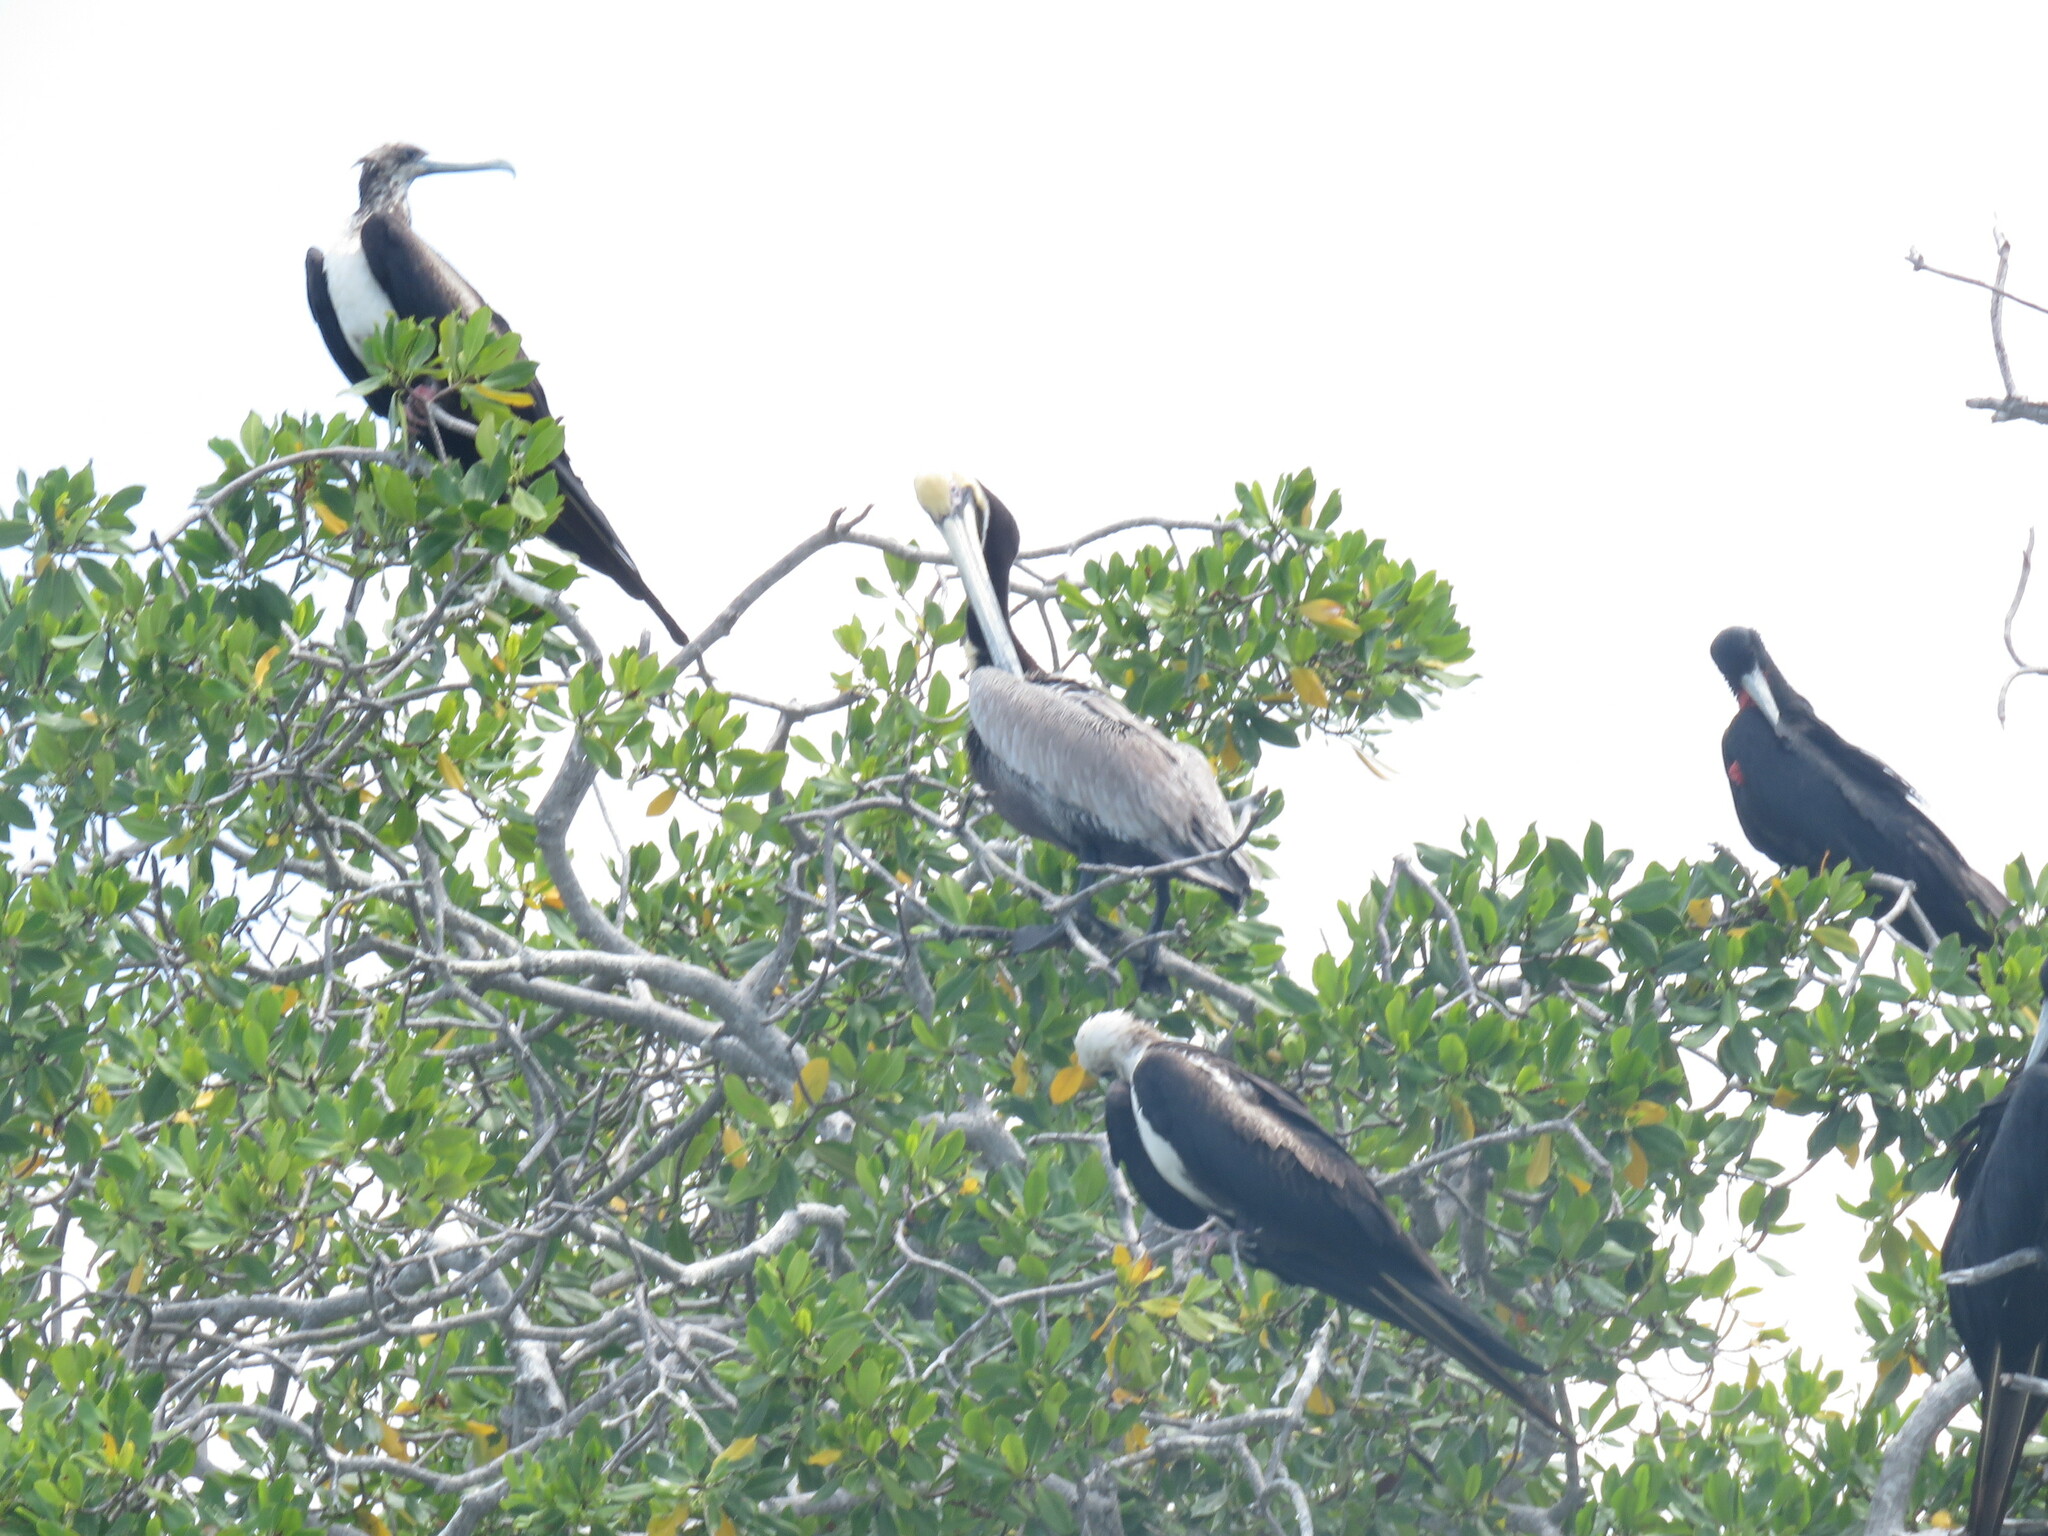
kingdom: Animalia
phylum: Chordata
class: Aves
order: Pelecaniformes
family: Pelecanidae
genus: Pelecanus
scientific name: Pelecanus occidentalis
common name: Brown pelican
